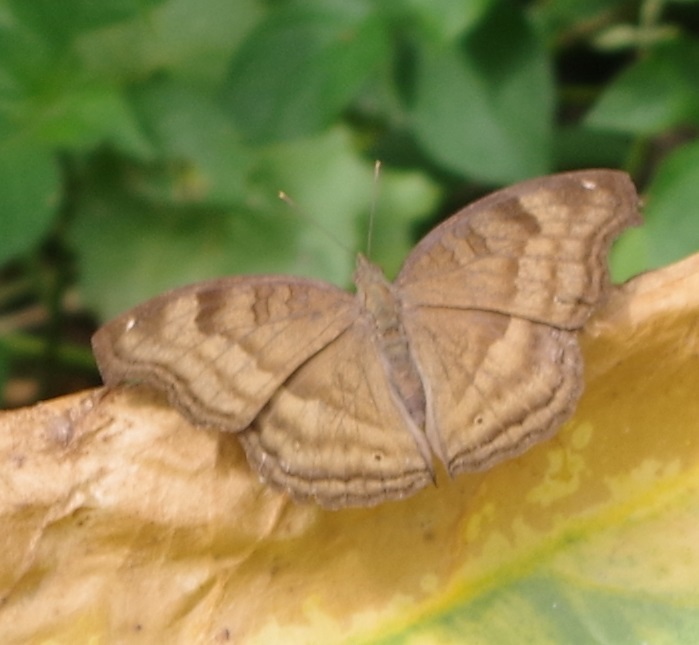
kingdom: Animalia
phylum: Arthropoda
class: Insecta
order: Lepidoptera
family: Nymphalidae
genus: Junonia
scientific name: Junonia iphita
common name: Chocolate pansy
